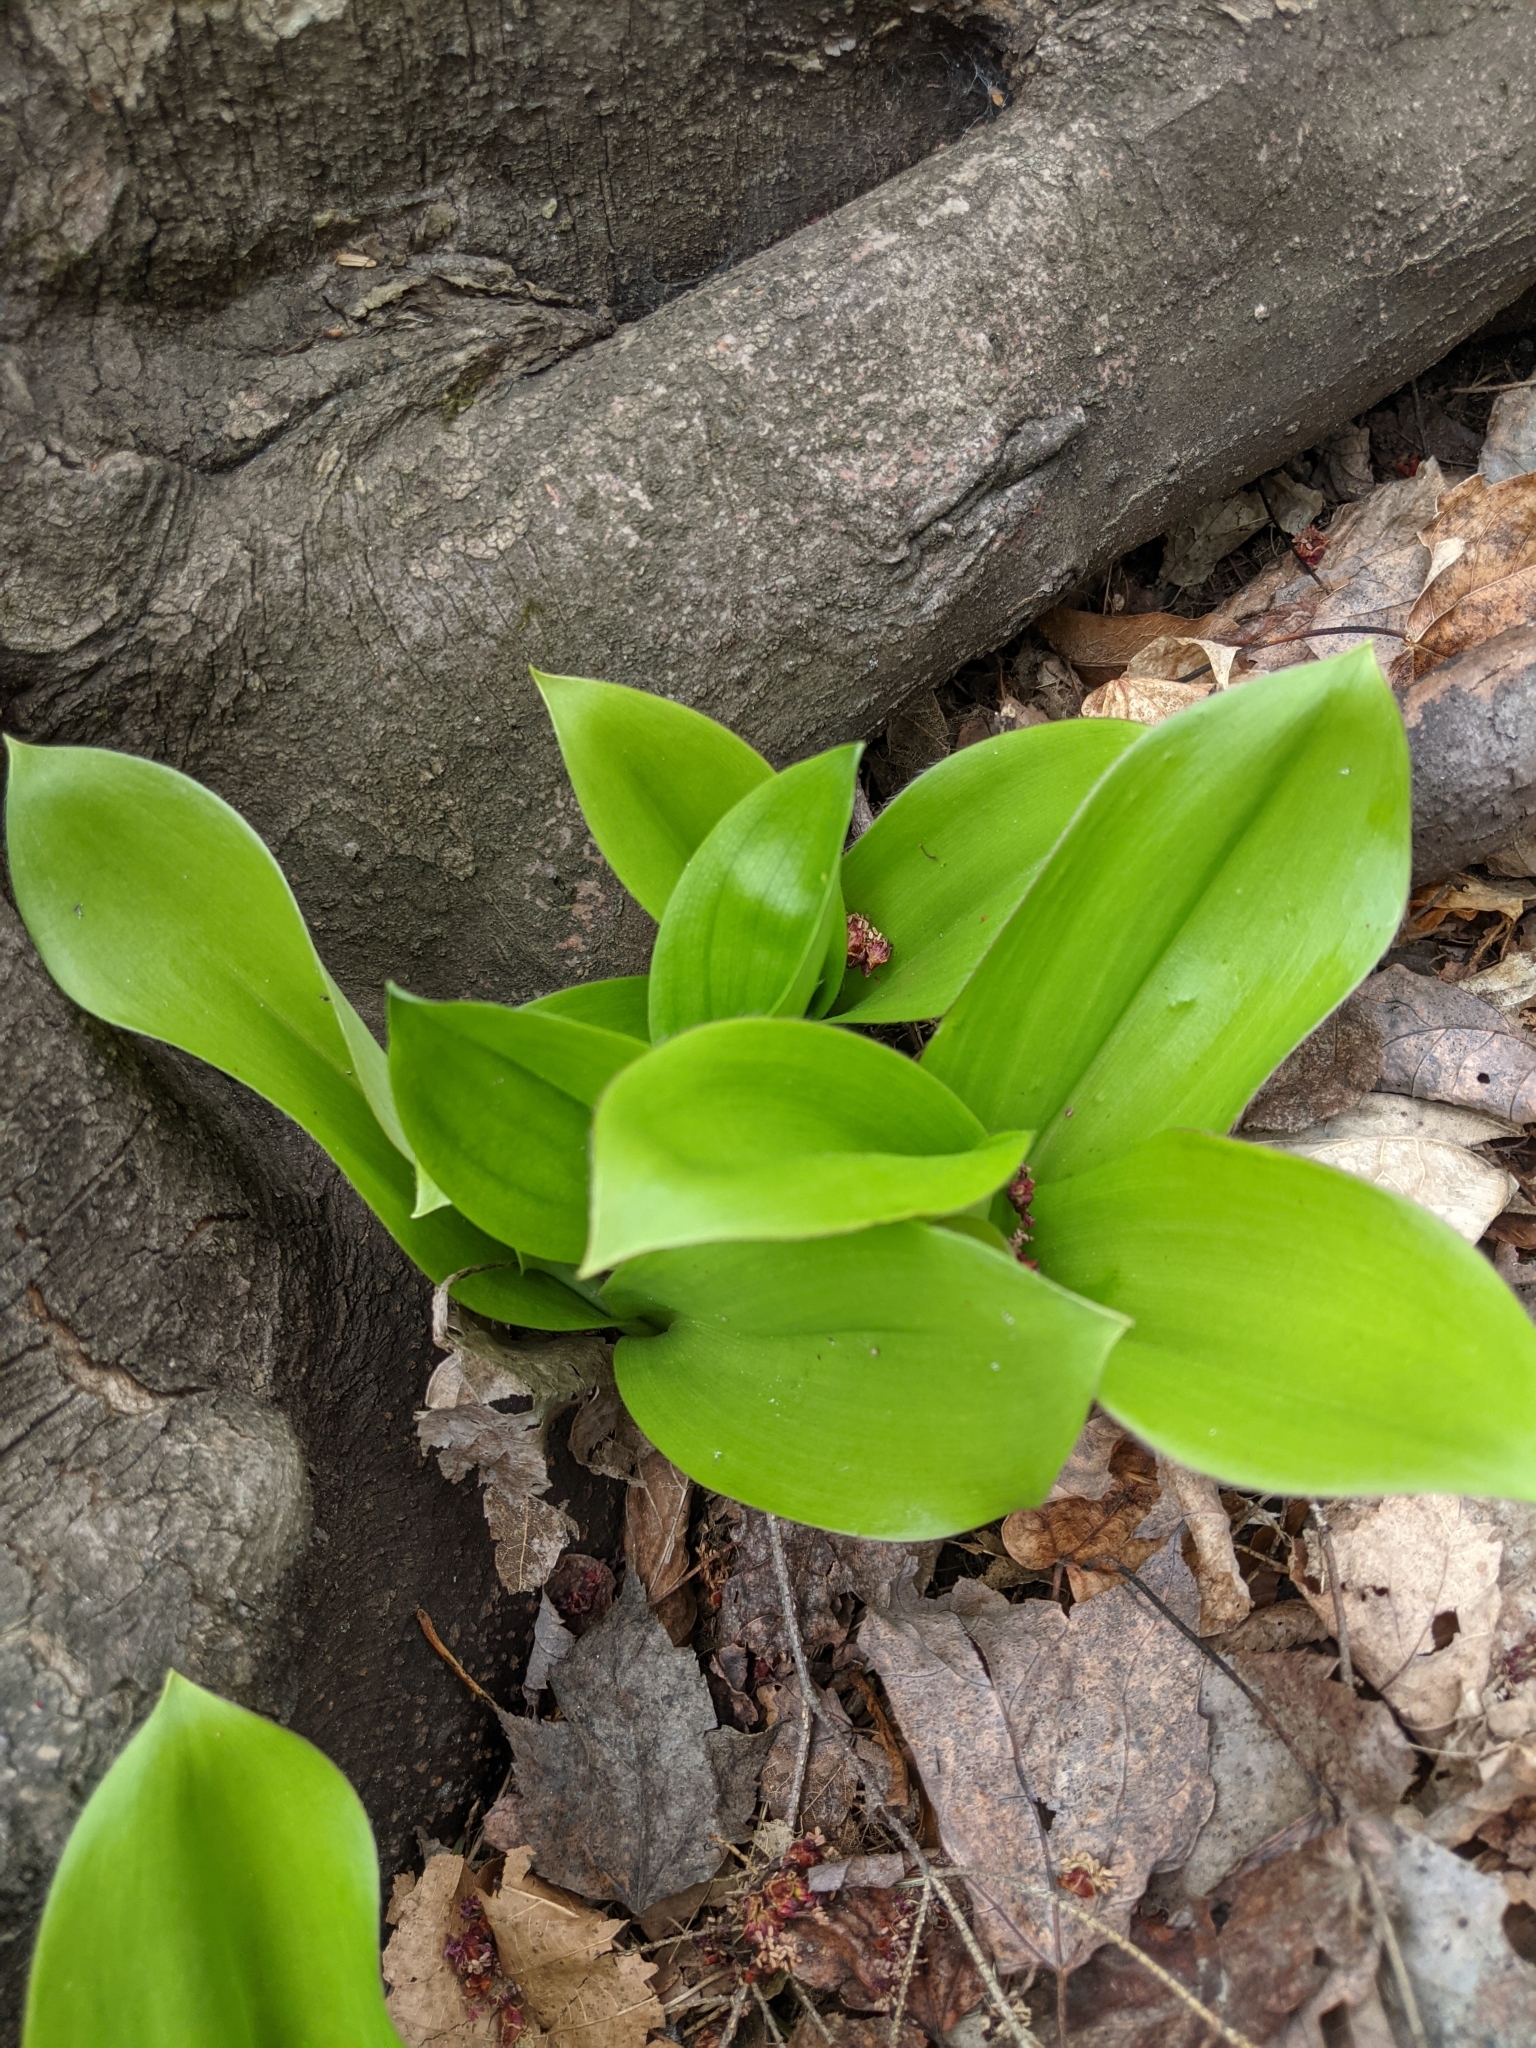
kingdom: Plantae
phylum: Tracheophyta
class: Liliopsida
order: Liliales
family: Liliaceae
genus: Clintonia
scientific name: Clintonia borealis
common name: Yellow clintonia
